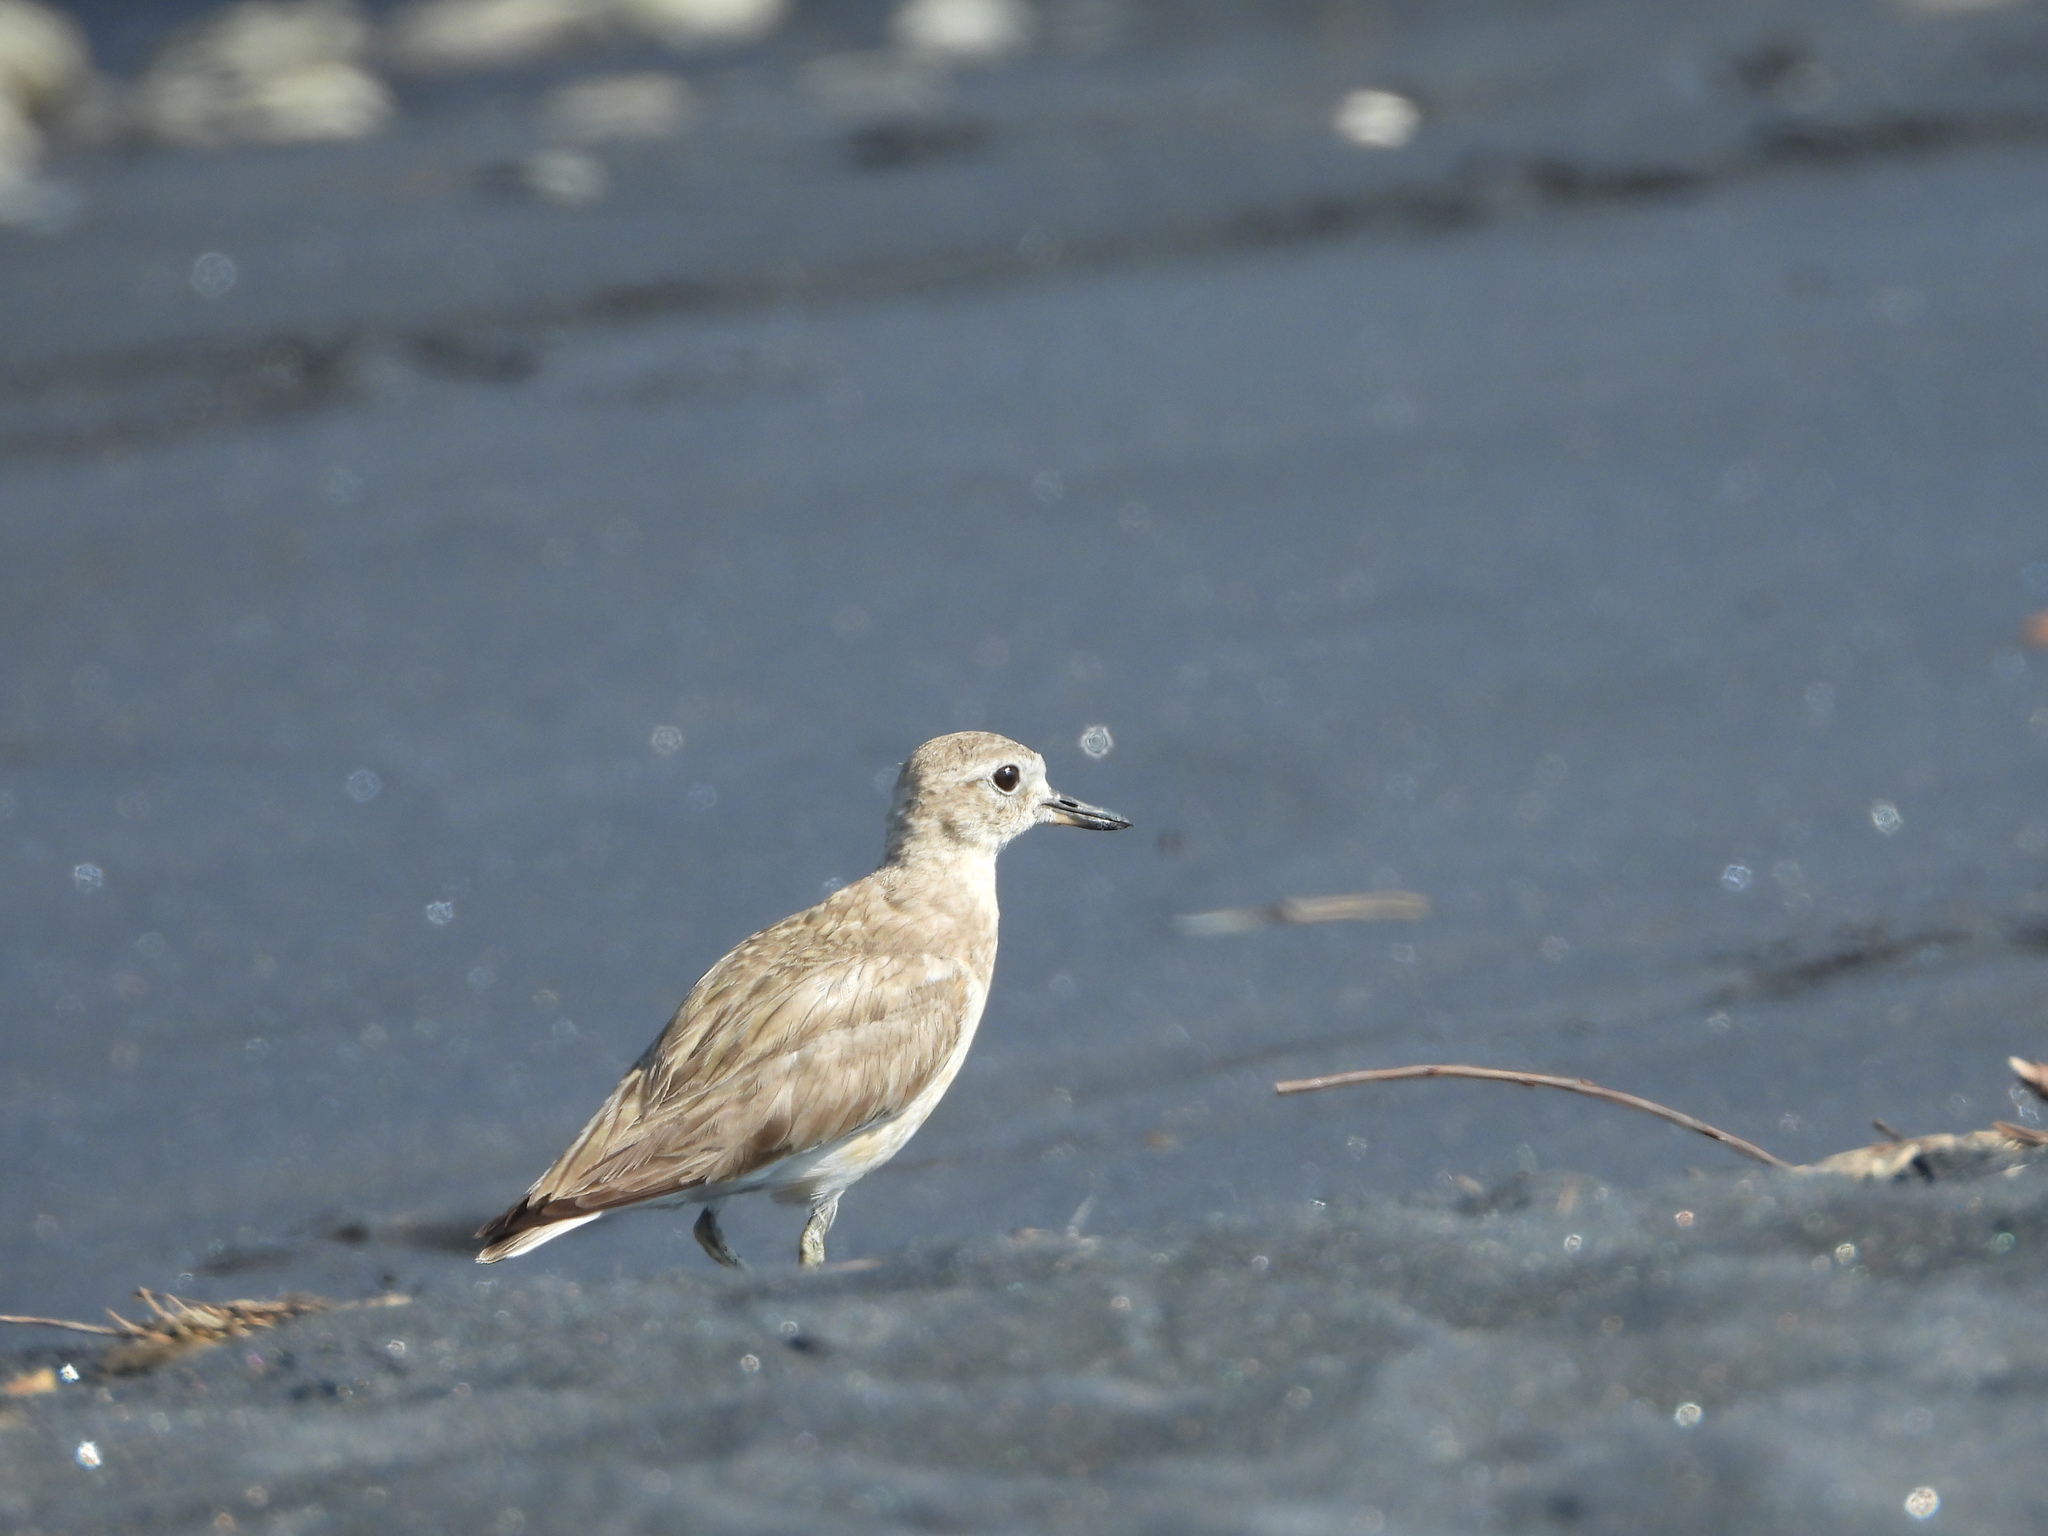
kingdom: Animalia
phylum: Chordata
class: Aves
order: Charadriiformes
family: Charadriidae
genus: Anarhynchus
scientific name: Anarhynchus
